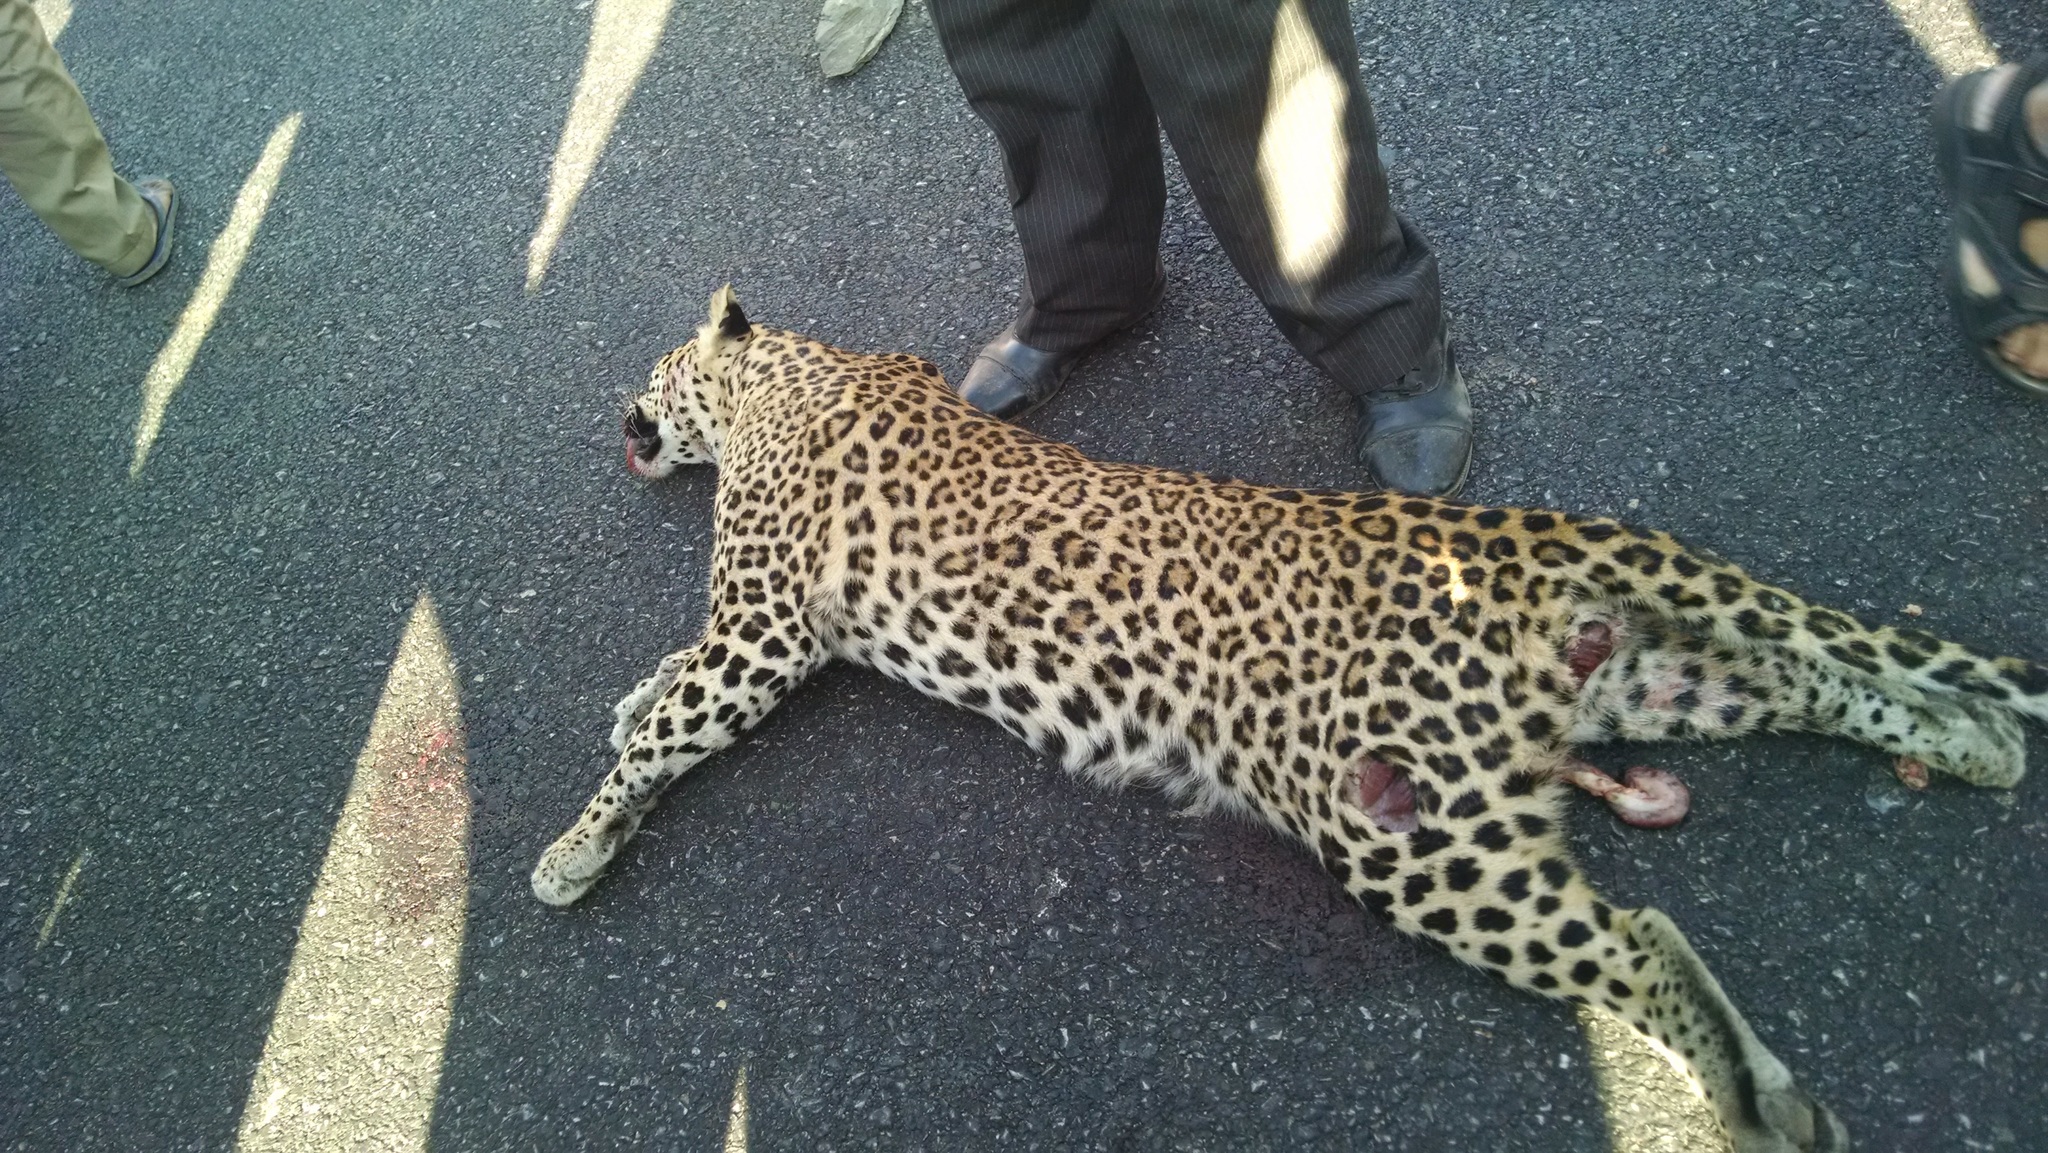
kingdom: Animalia
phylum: Chordata
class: Mammalia
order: Carnivora
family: Felidae
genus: Panthera
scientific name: Panthera pardus
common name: Leopard
